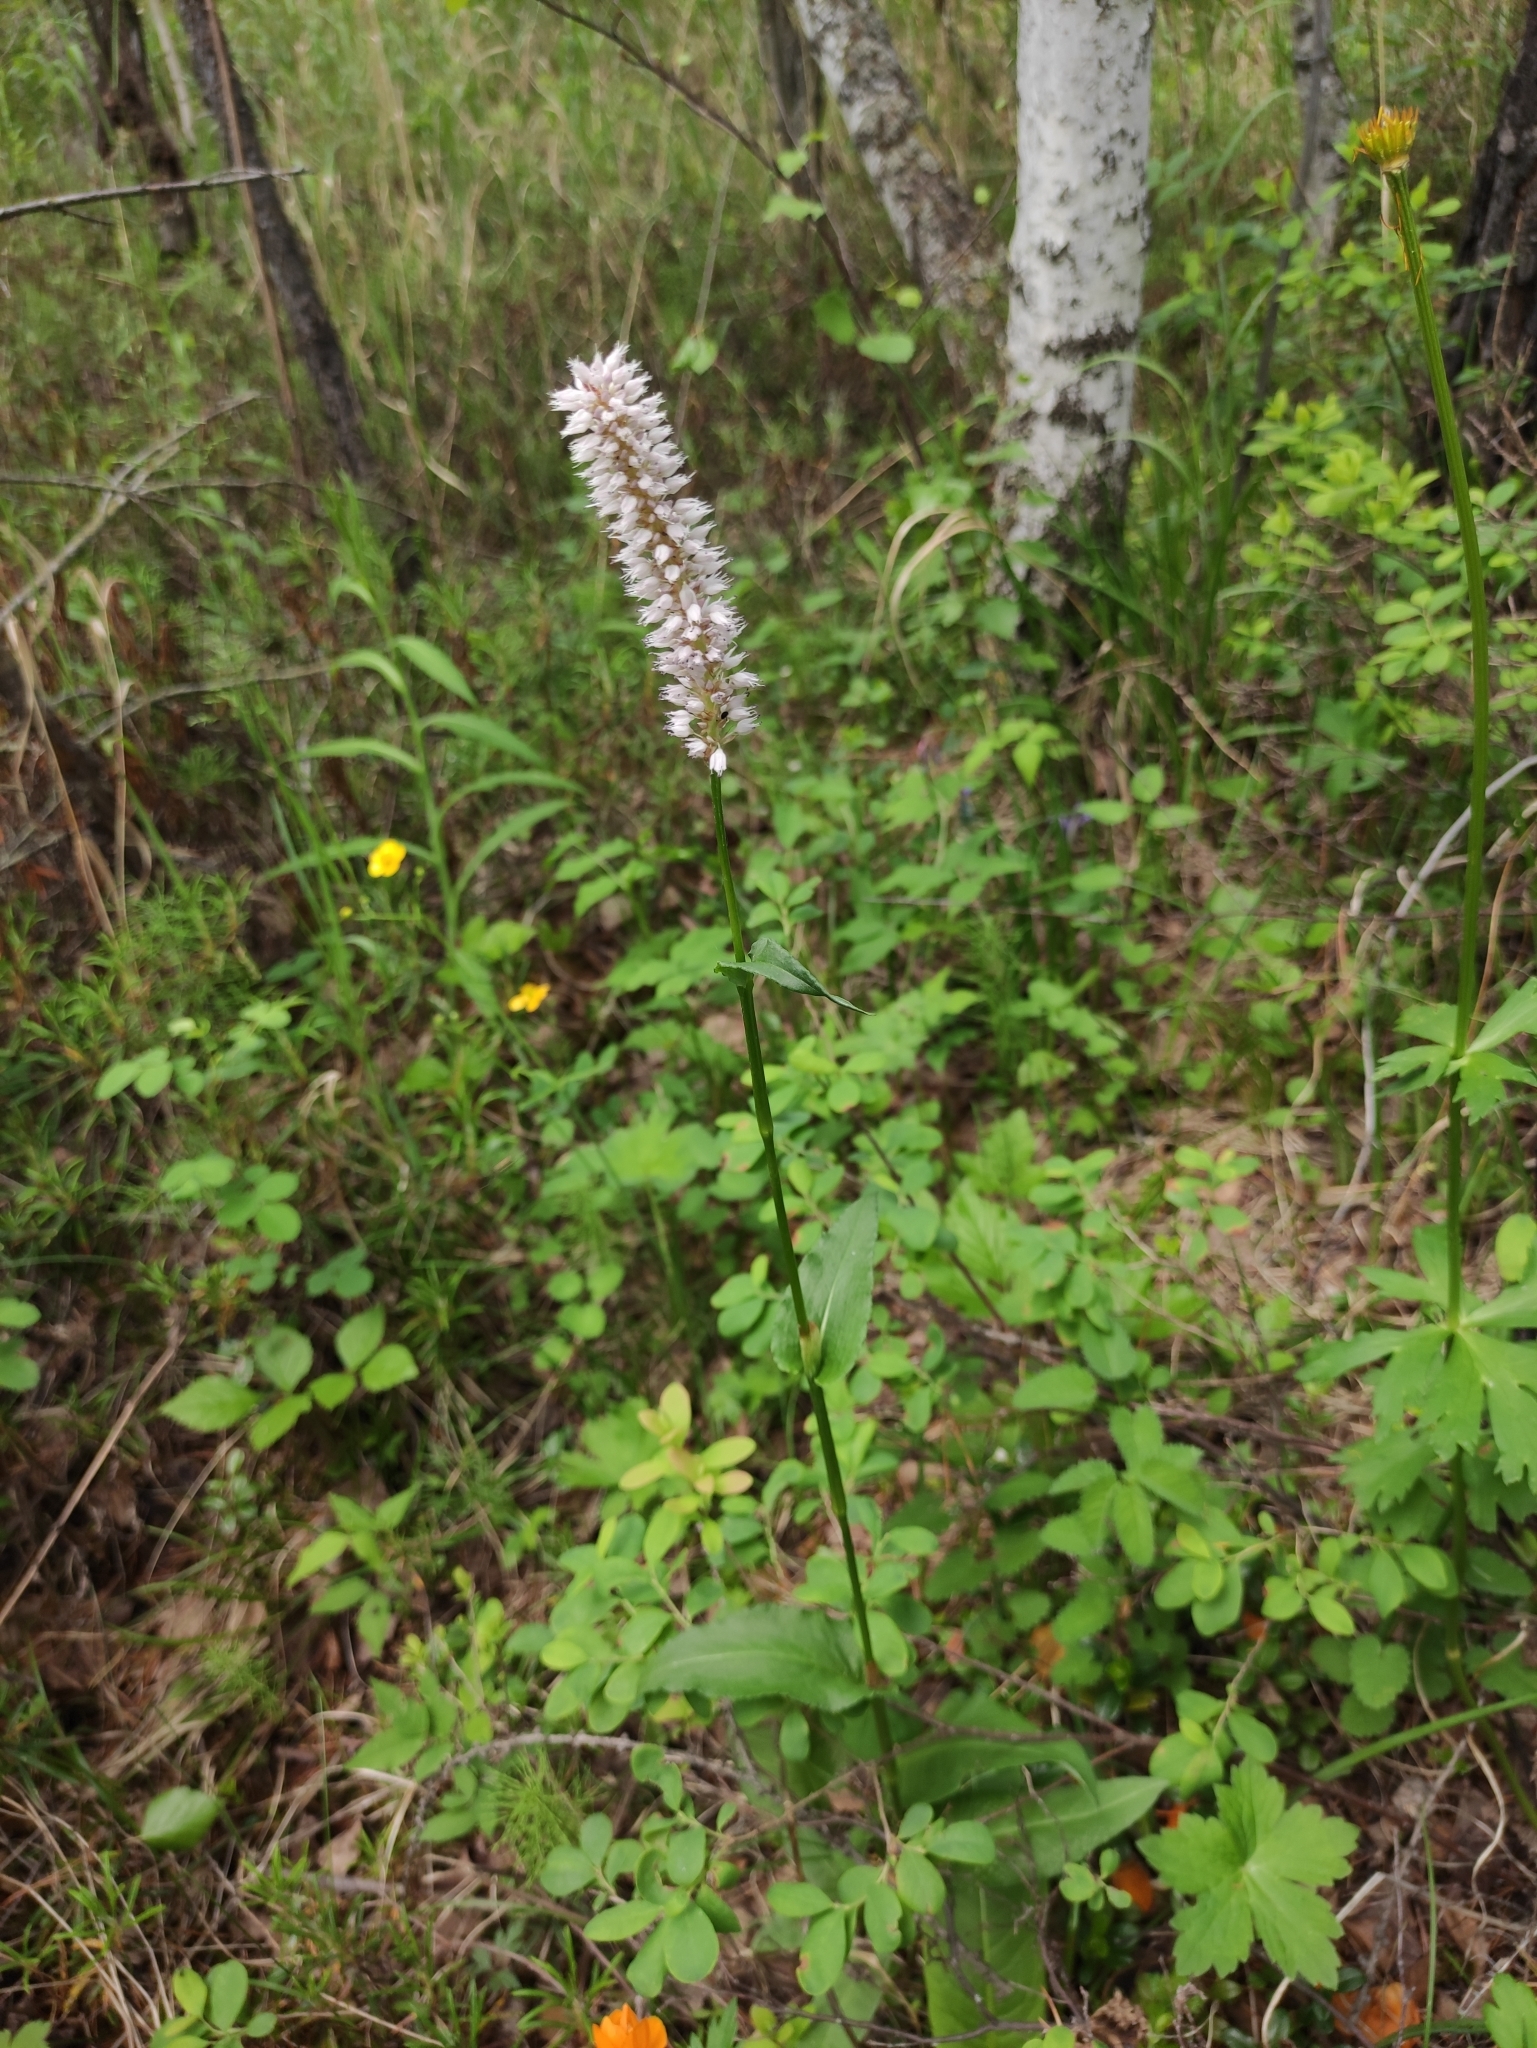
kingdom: Plantae
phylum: Tracheophyta
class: Magnoliopsida
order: Caryophyllales
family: Polygonaceae
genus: Bistorta
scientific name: Bistorta officinalis
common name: Common bistort
